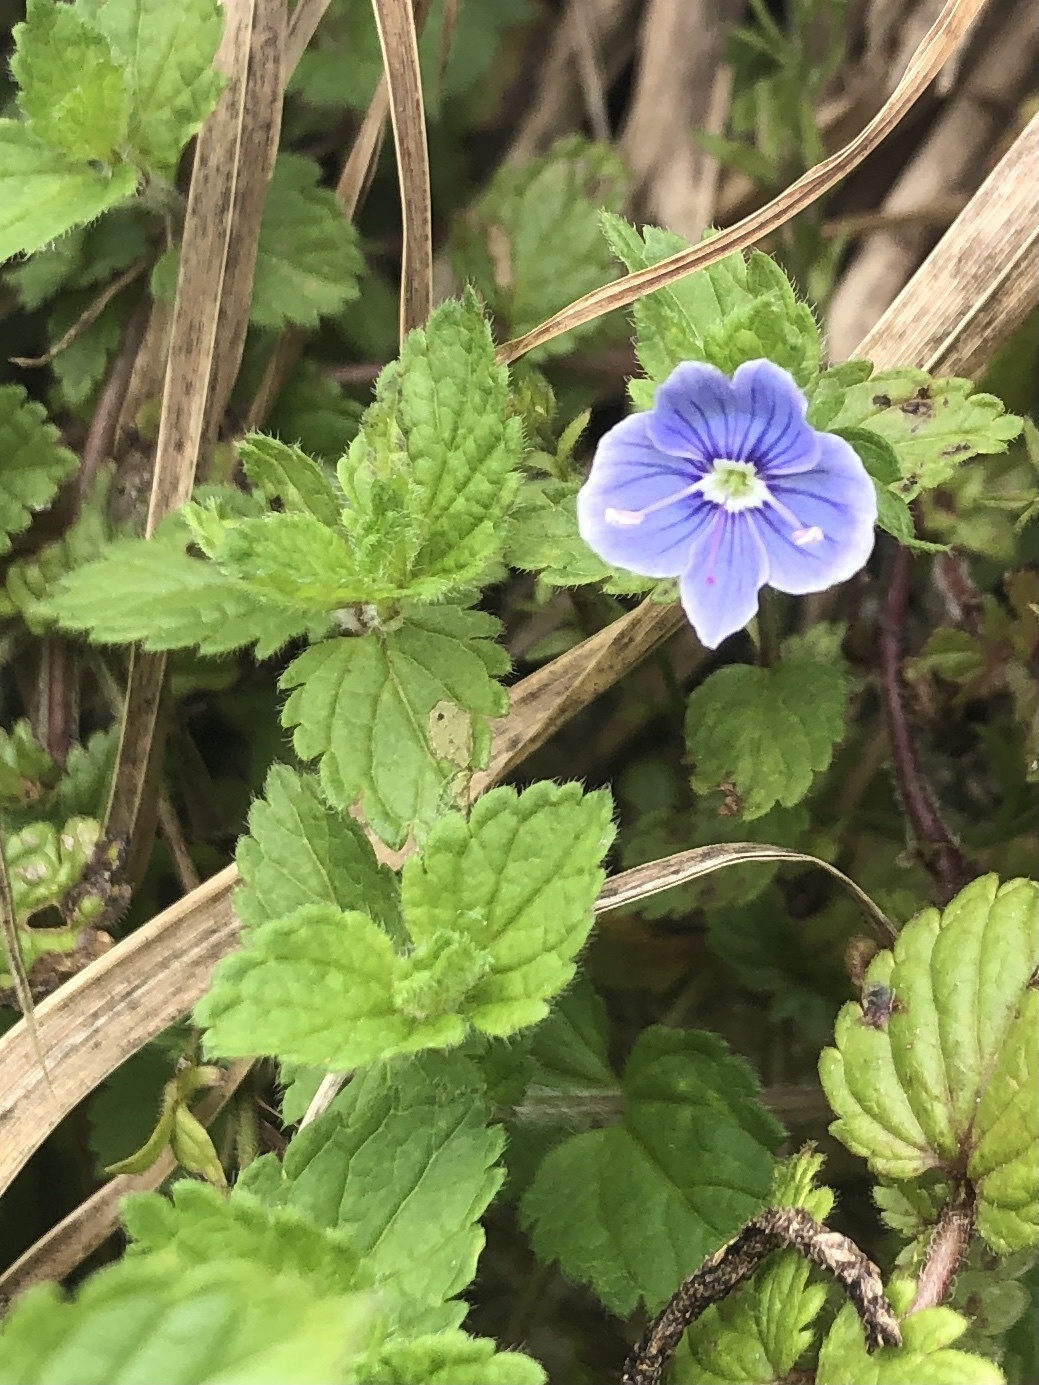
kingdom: Plantae
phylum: Tracheophyta
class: Magnoliopsida
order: Lamiales
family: Plantaginaceae
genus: Veronica
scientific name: Veronica chamaedrys
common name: Germander speedwell
